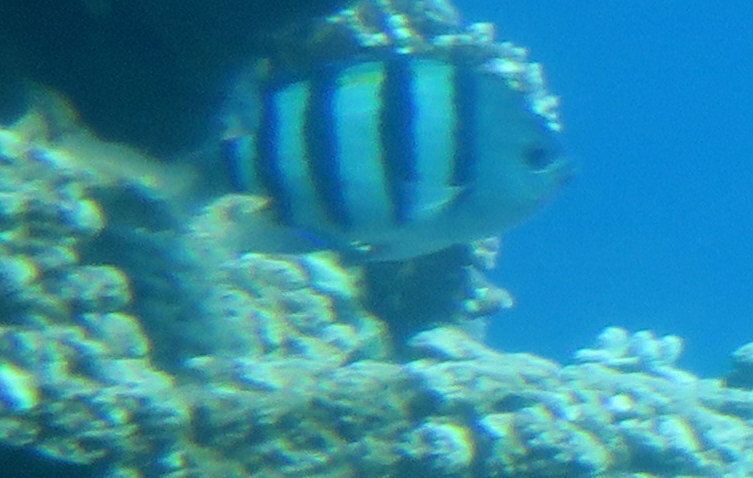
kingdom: Animalia
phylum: Chordata
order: Perciformes
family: Pomacentridae
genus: Abudefduf
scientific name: Abudefduf vaigiensis
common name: Indo-pacific sergeant
